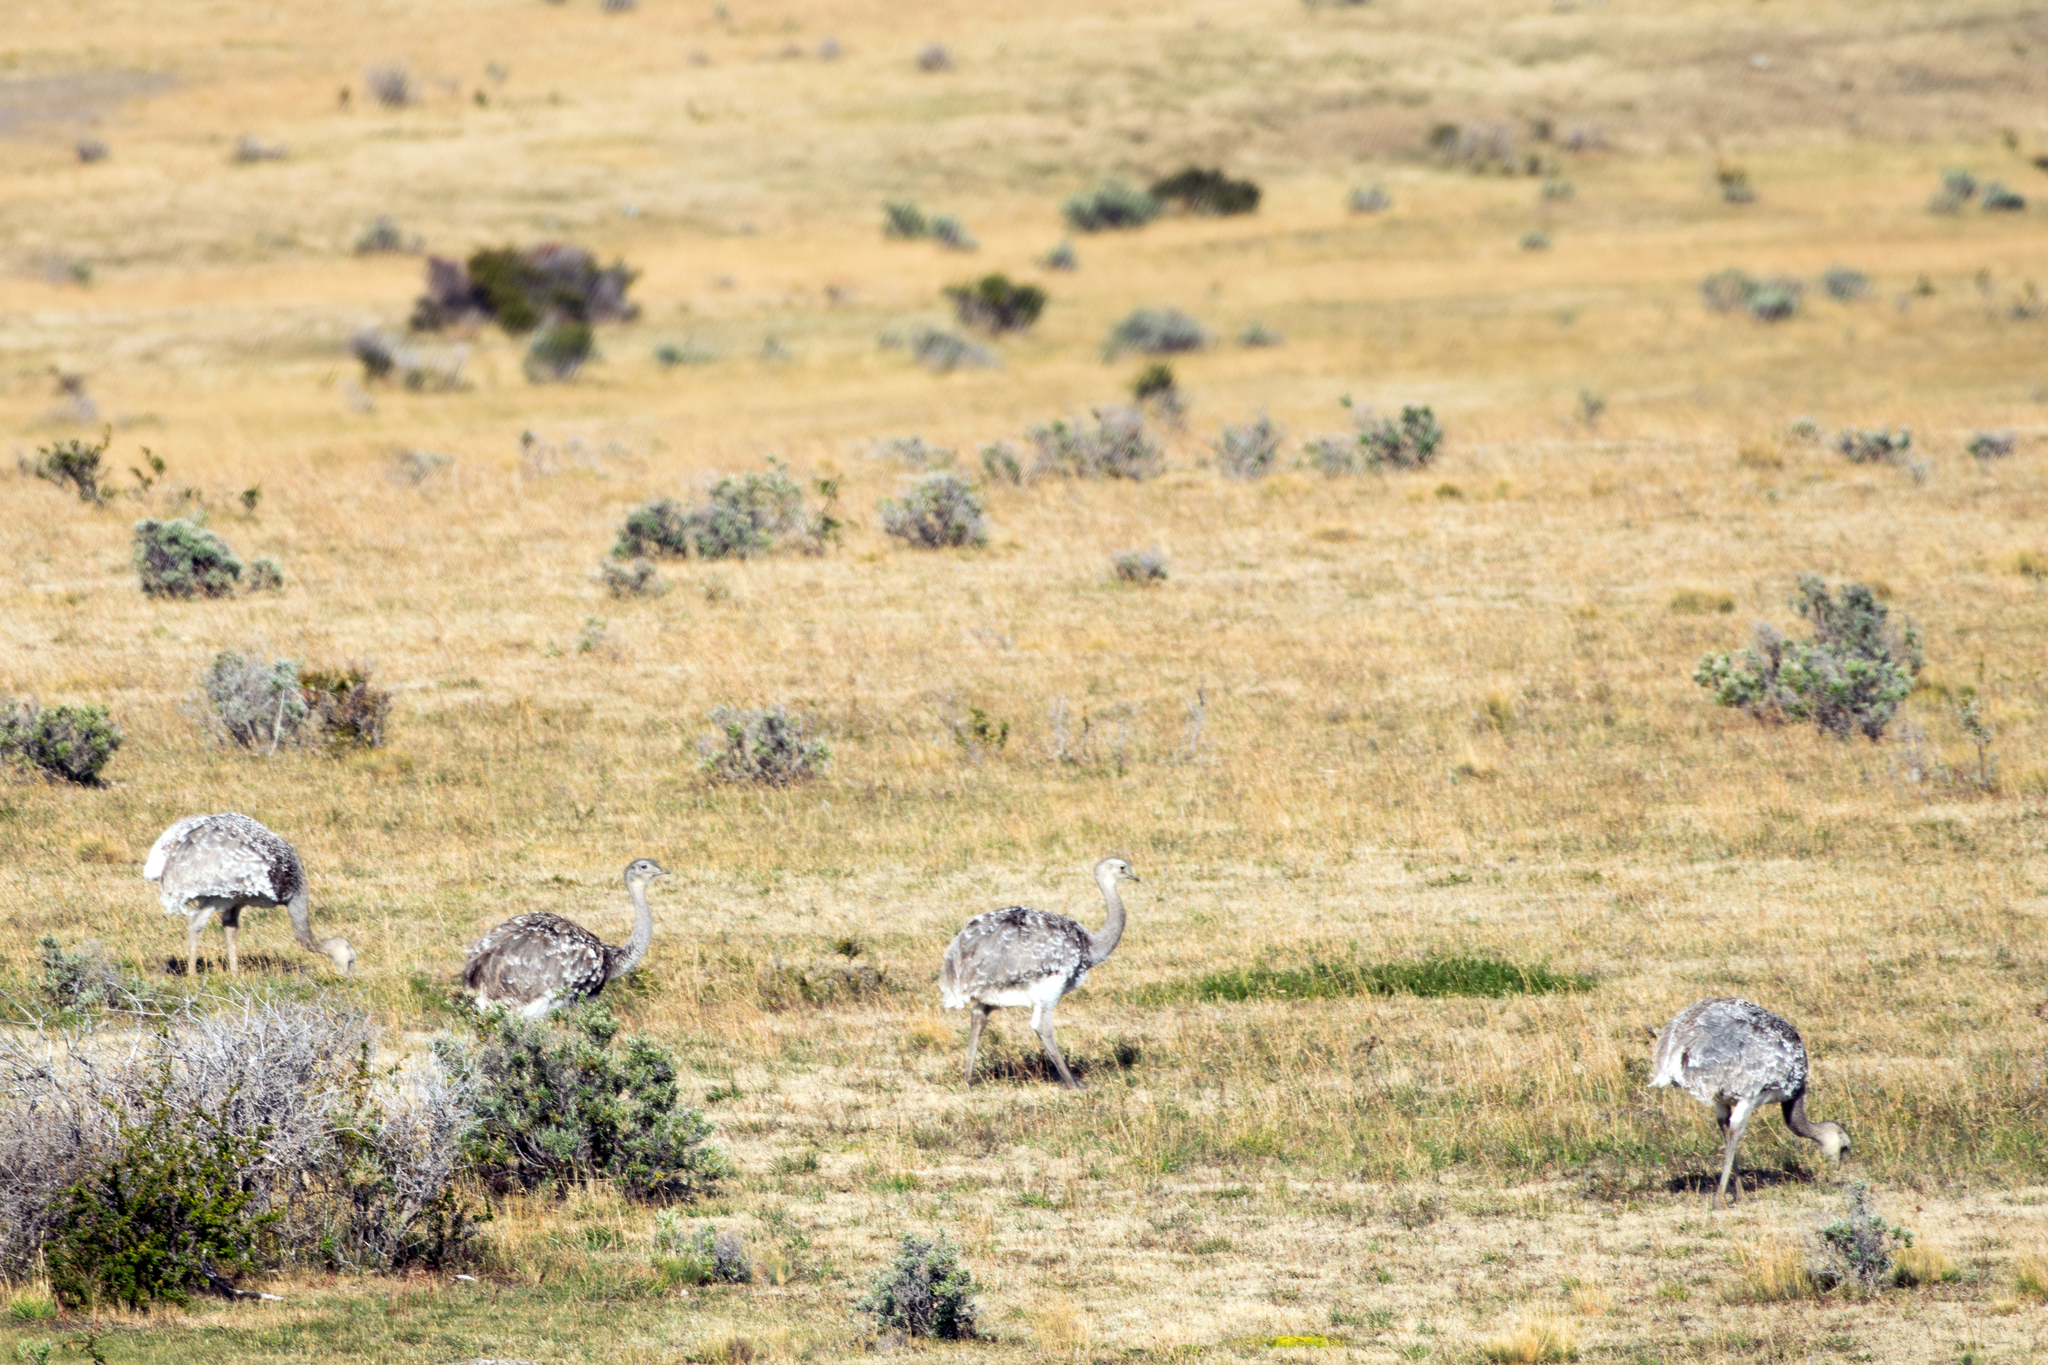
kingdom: Animalia
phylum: Chordata
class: Aves
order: Rheiformes
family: Rheidae
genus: Rhea
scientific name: Rhea pennata
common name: Lesser rhea
